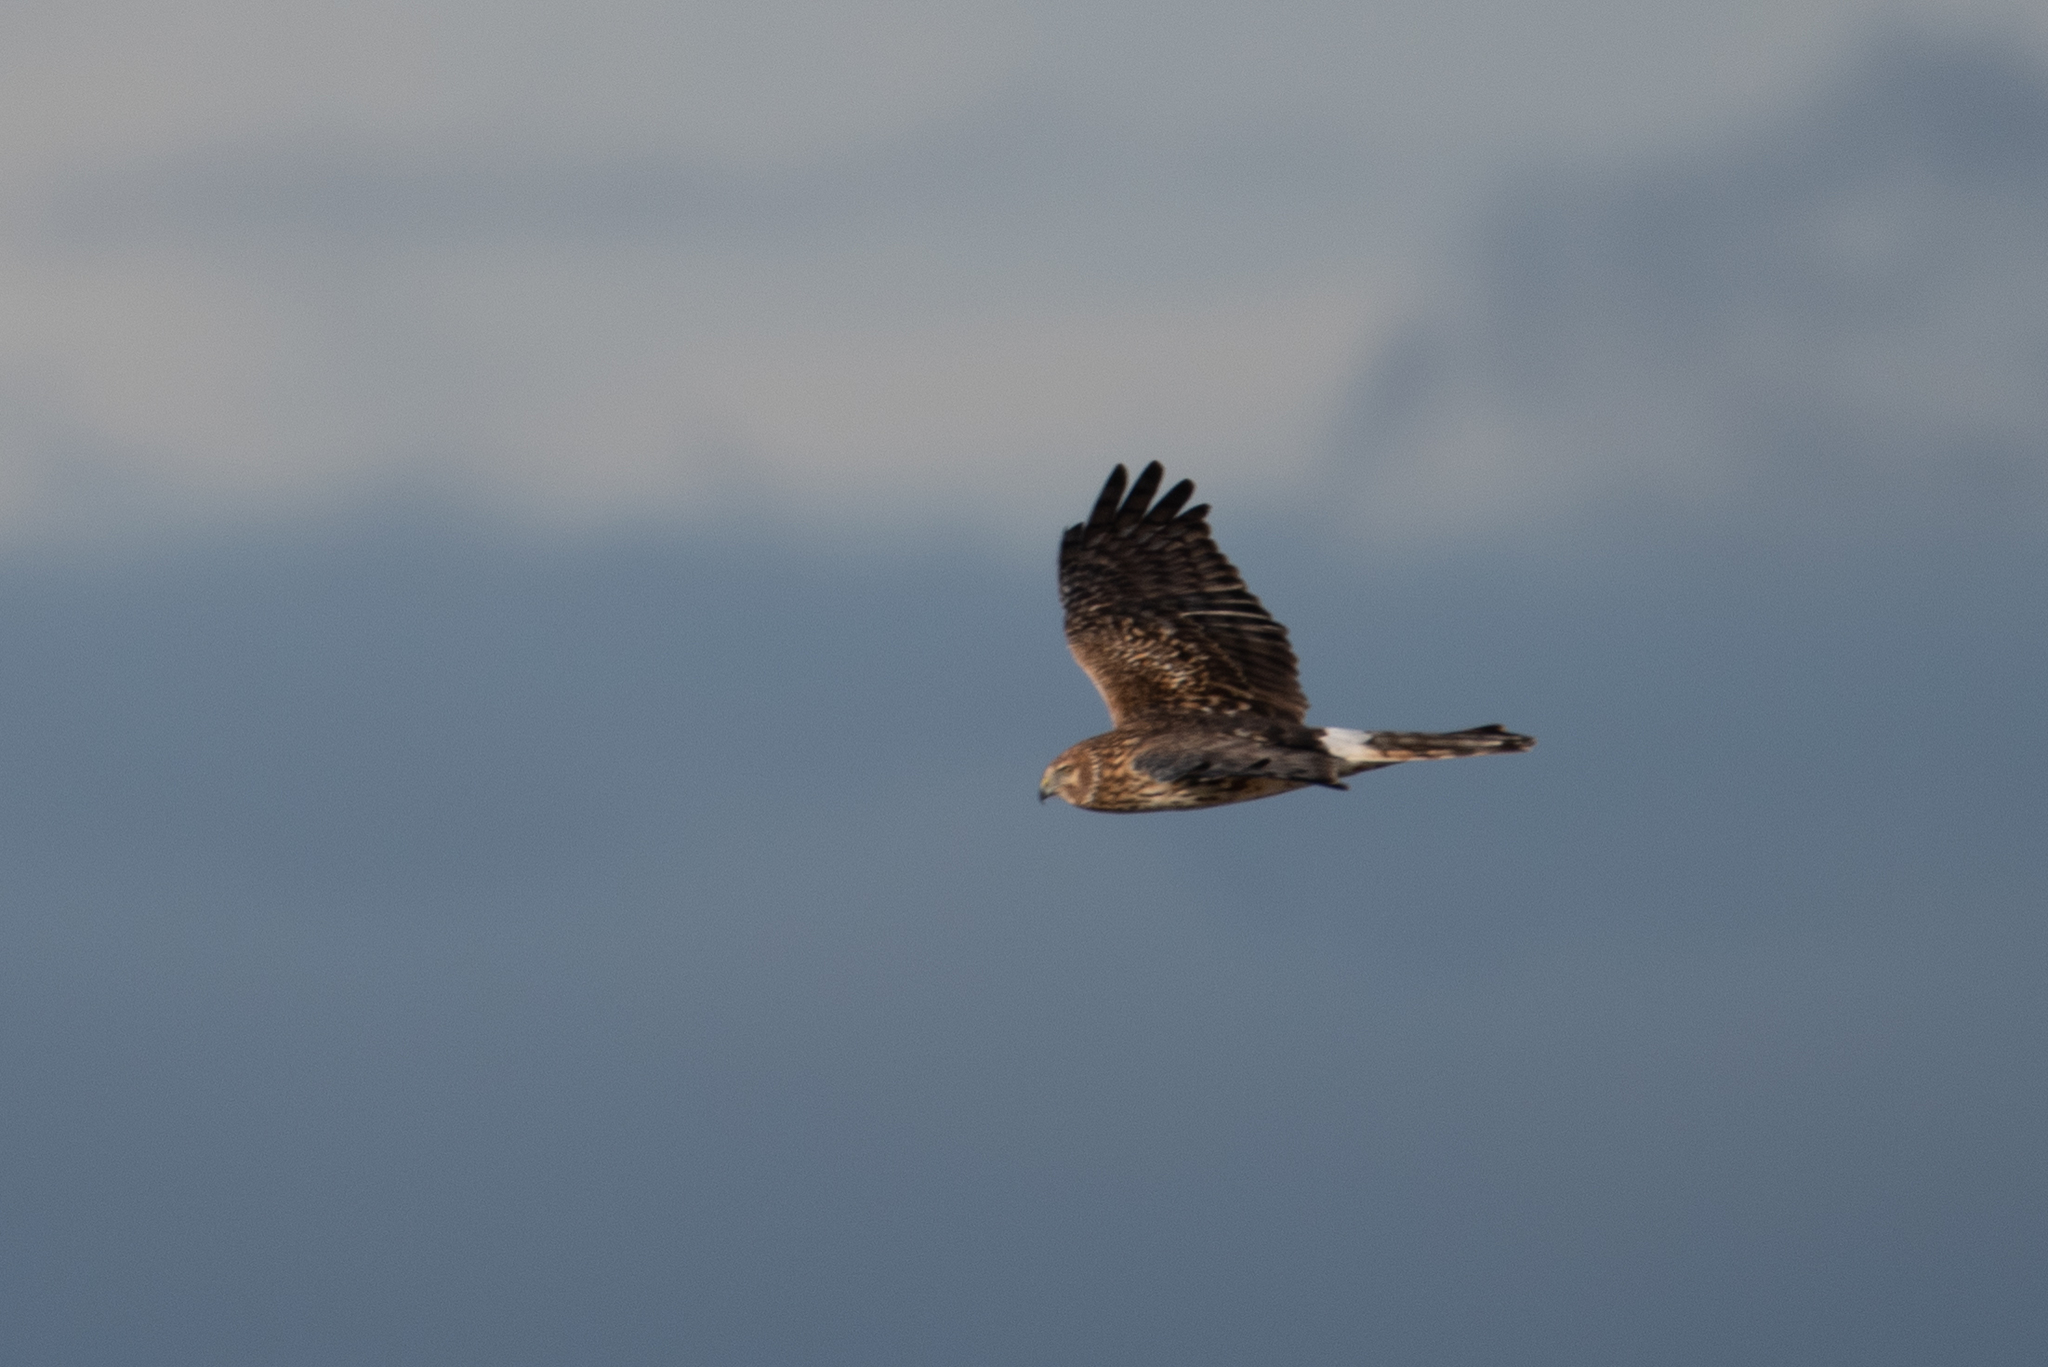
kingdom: Animalia
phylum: Chordata
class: Aves
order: Accipitriformes
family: Accipitridae
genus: Circus
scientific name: Circus cyaneus
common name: Hen harrier
